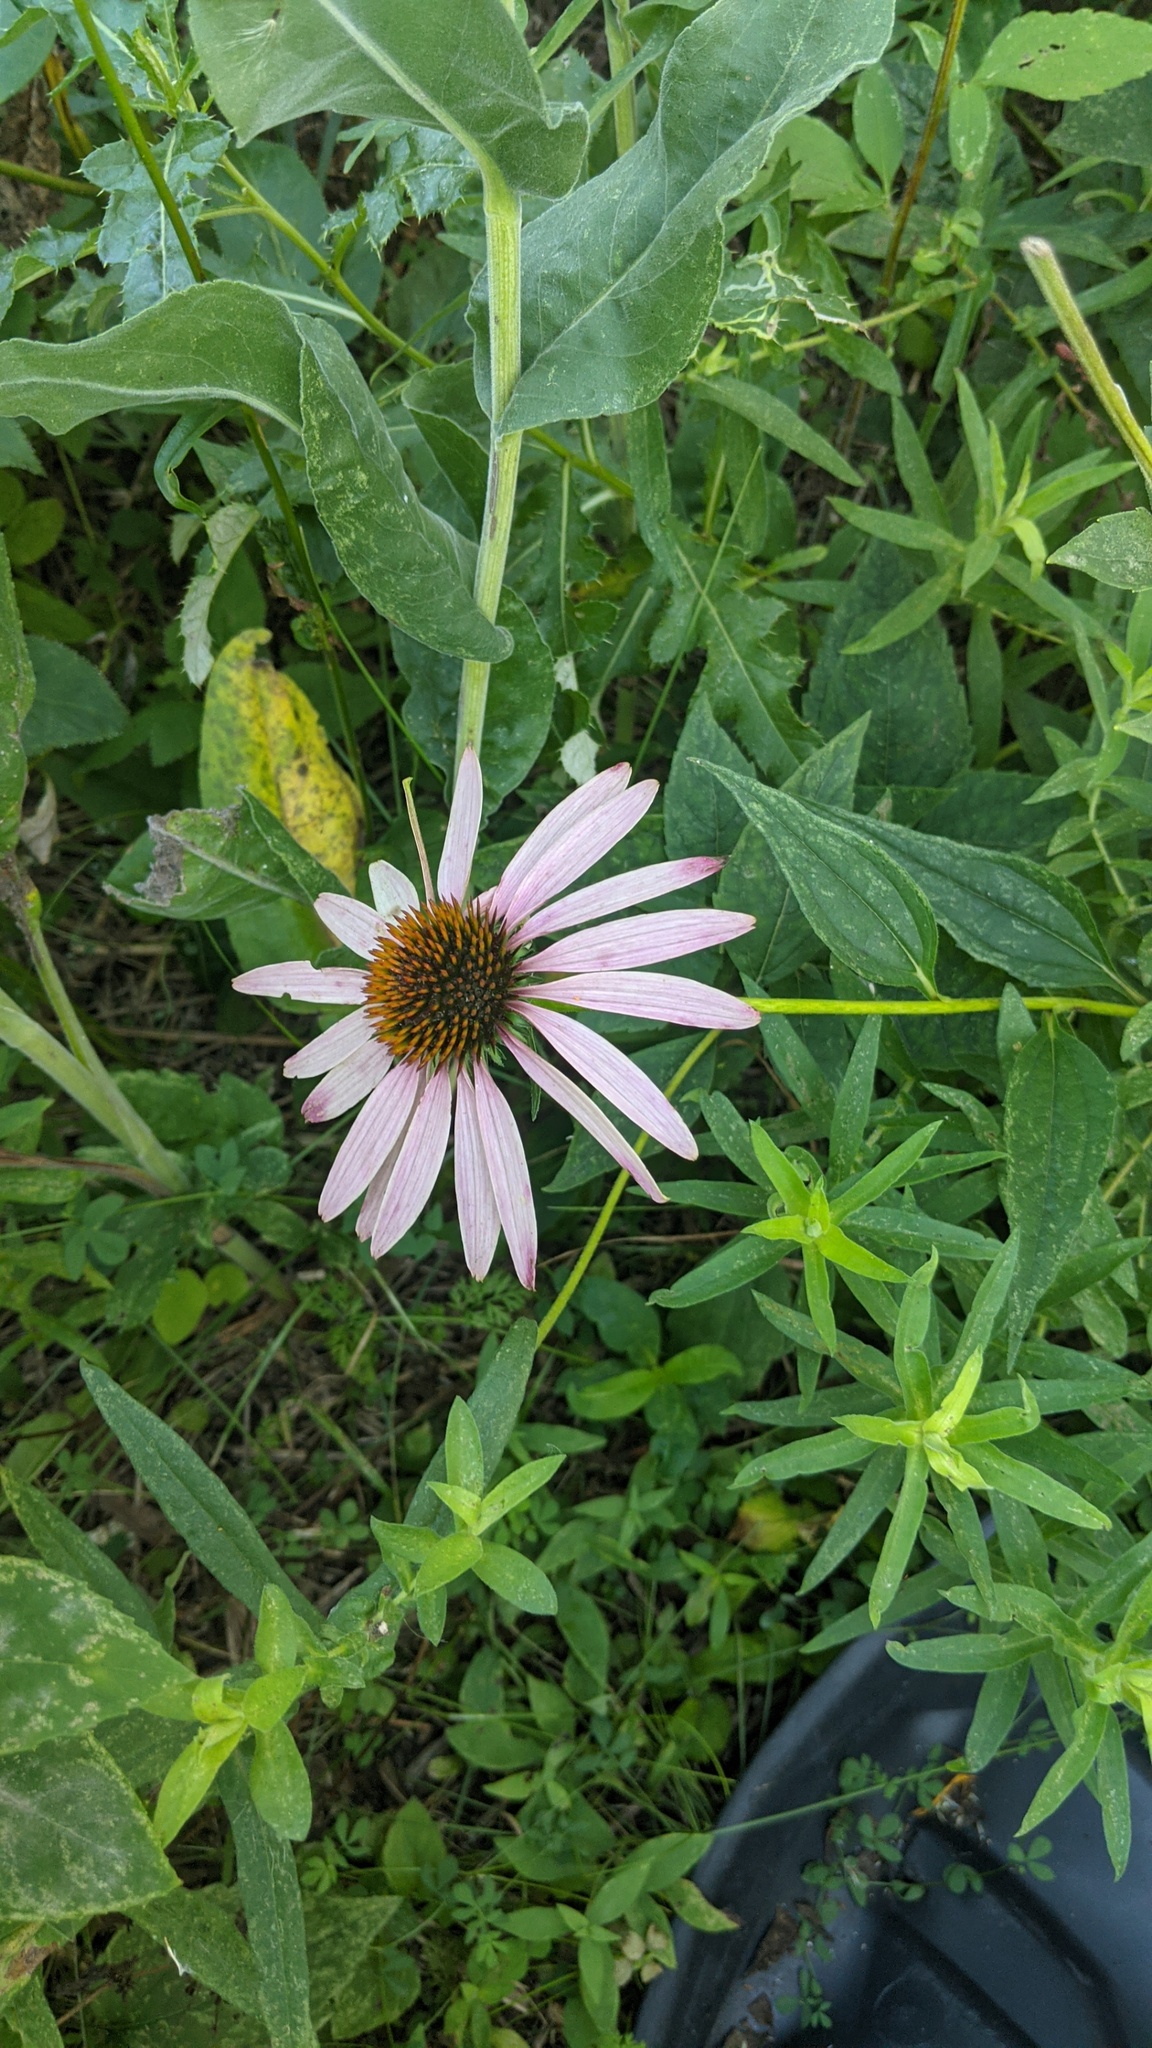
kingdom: Plantae
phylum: Tracheophyta
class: Magnoliopsida
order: Asterales
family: Asteraceae
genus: Echinacea
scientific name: Echinacea purpurea
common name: Broad-leaved purple coneflower
